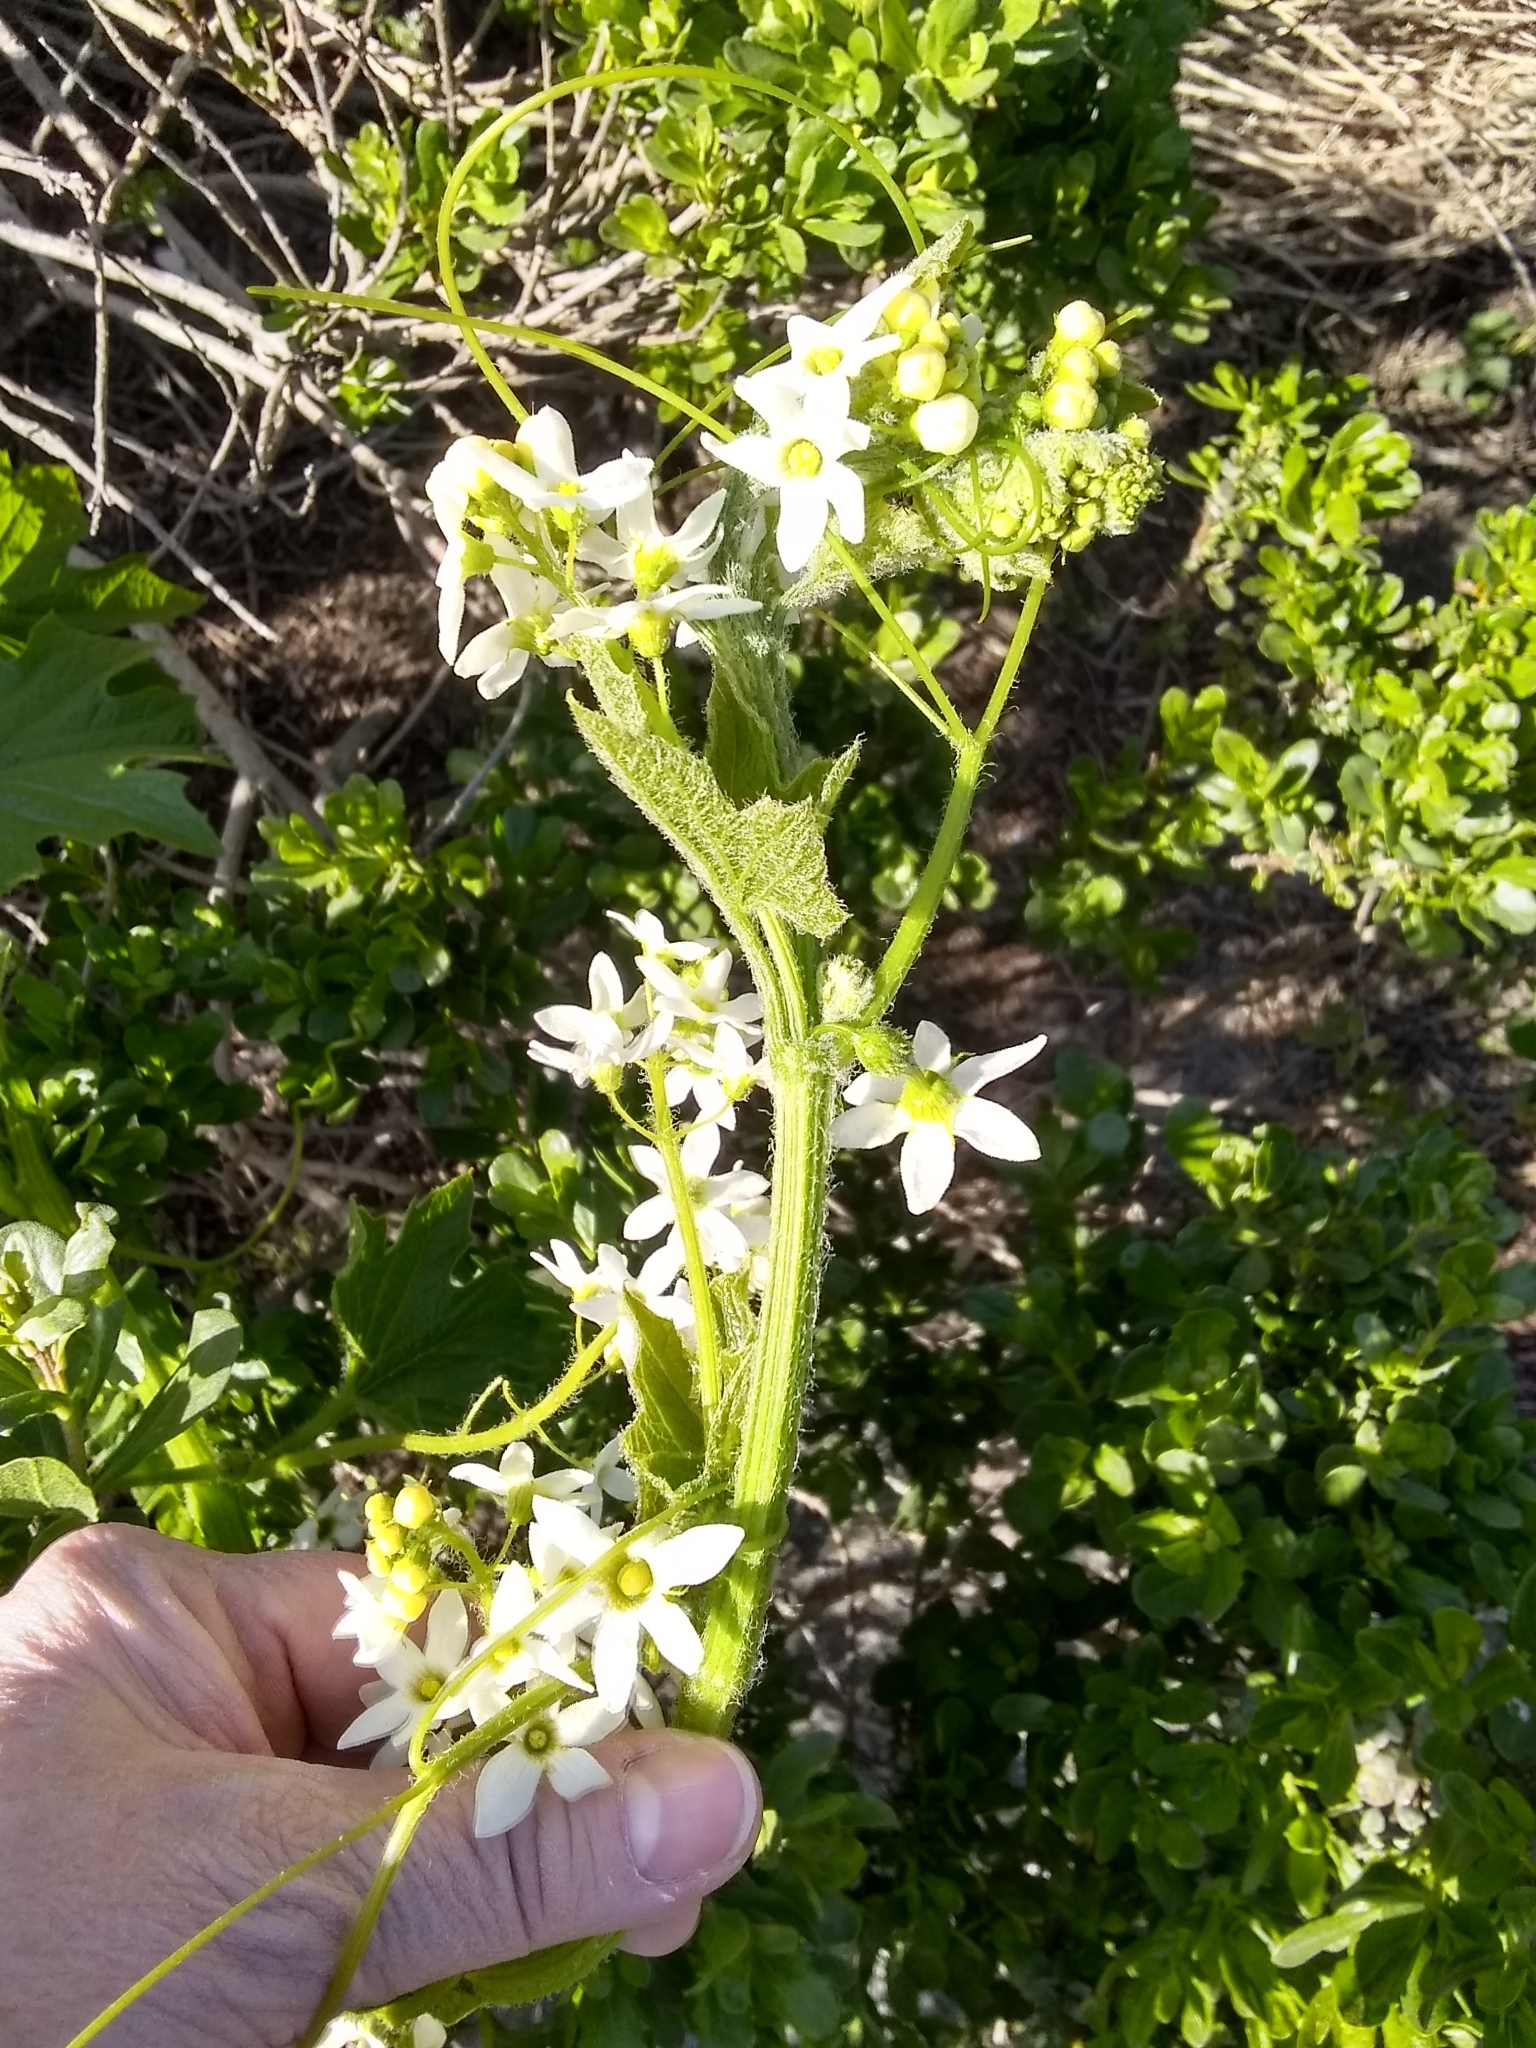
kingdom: Plantae
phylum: Tracheophyta
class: Magnoliopsida
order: Cucurbitales
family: Cucurbitaceae
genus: Marah
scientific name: Marah oregana
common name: Coastal manroot
